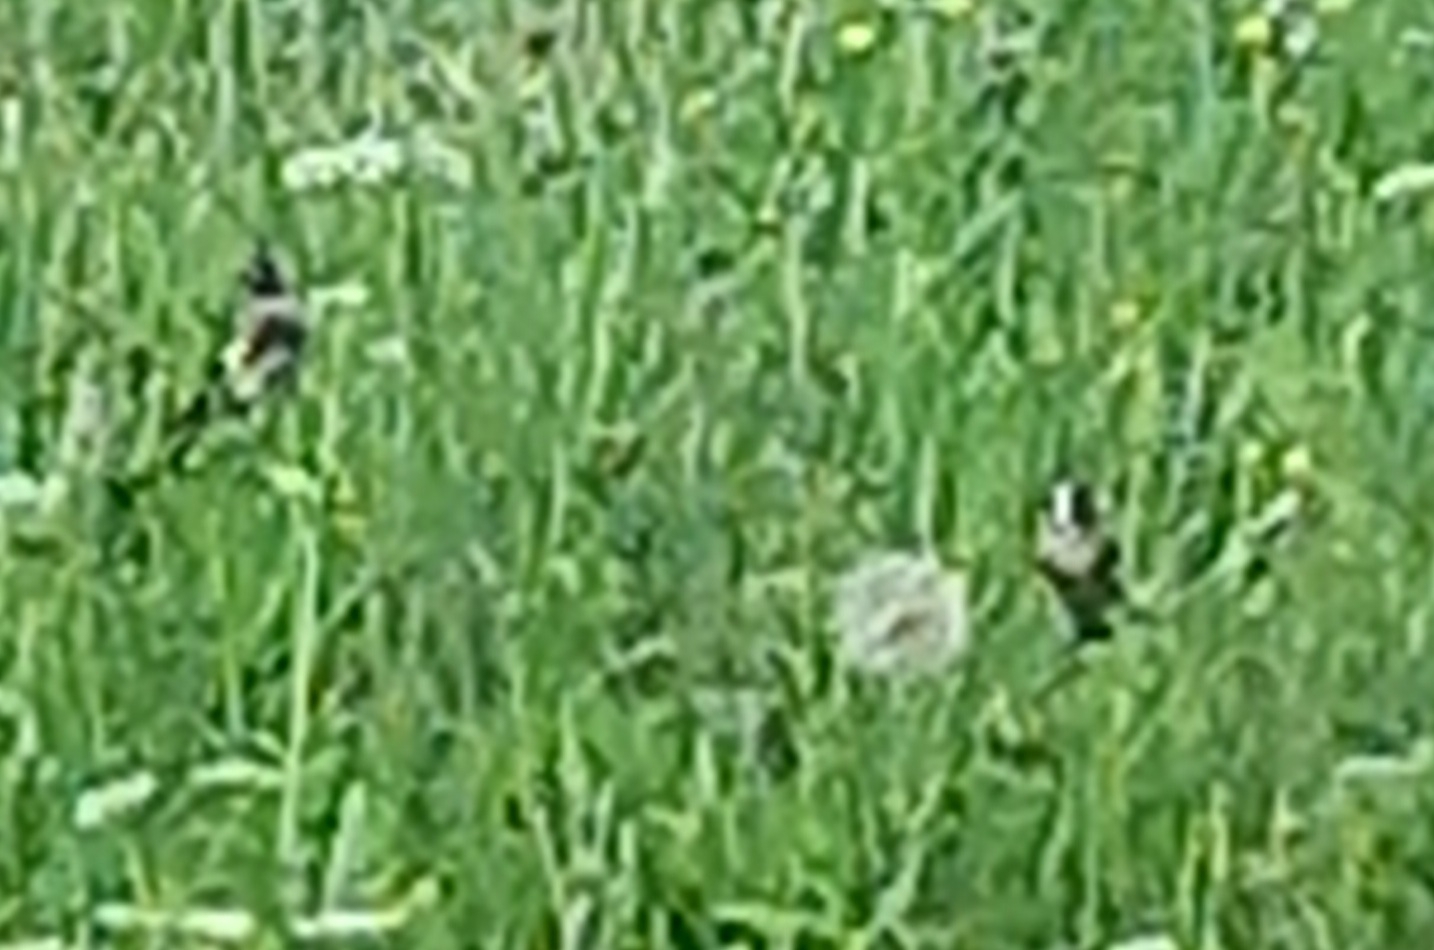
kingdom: Animalia
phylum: Chordata
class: Aves
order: Passeriformes
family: Fringillidae
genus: Carduelis
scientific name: Carduelis carduelis
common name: European goldfinch
